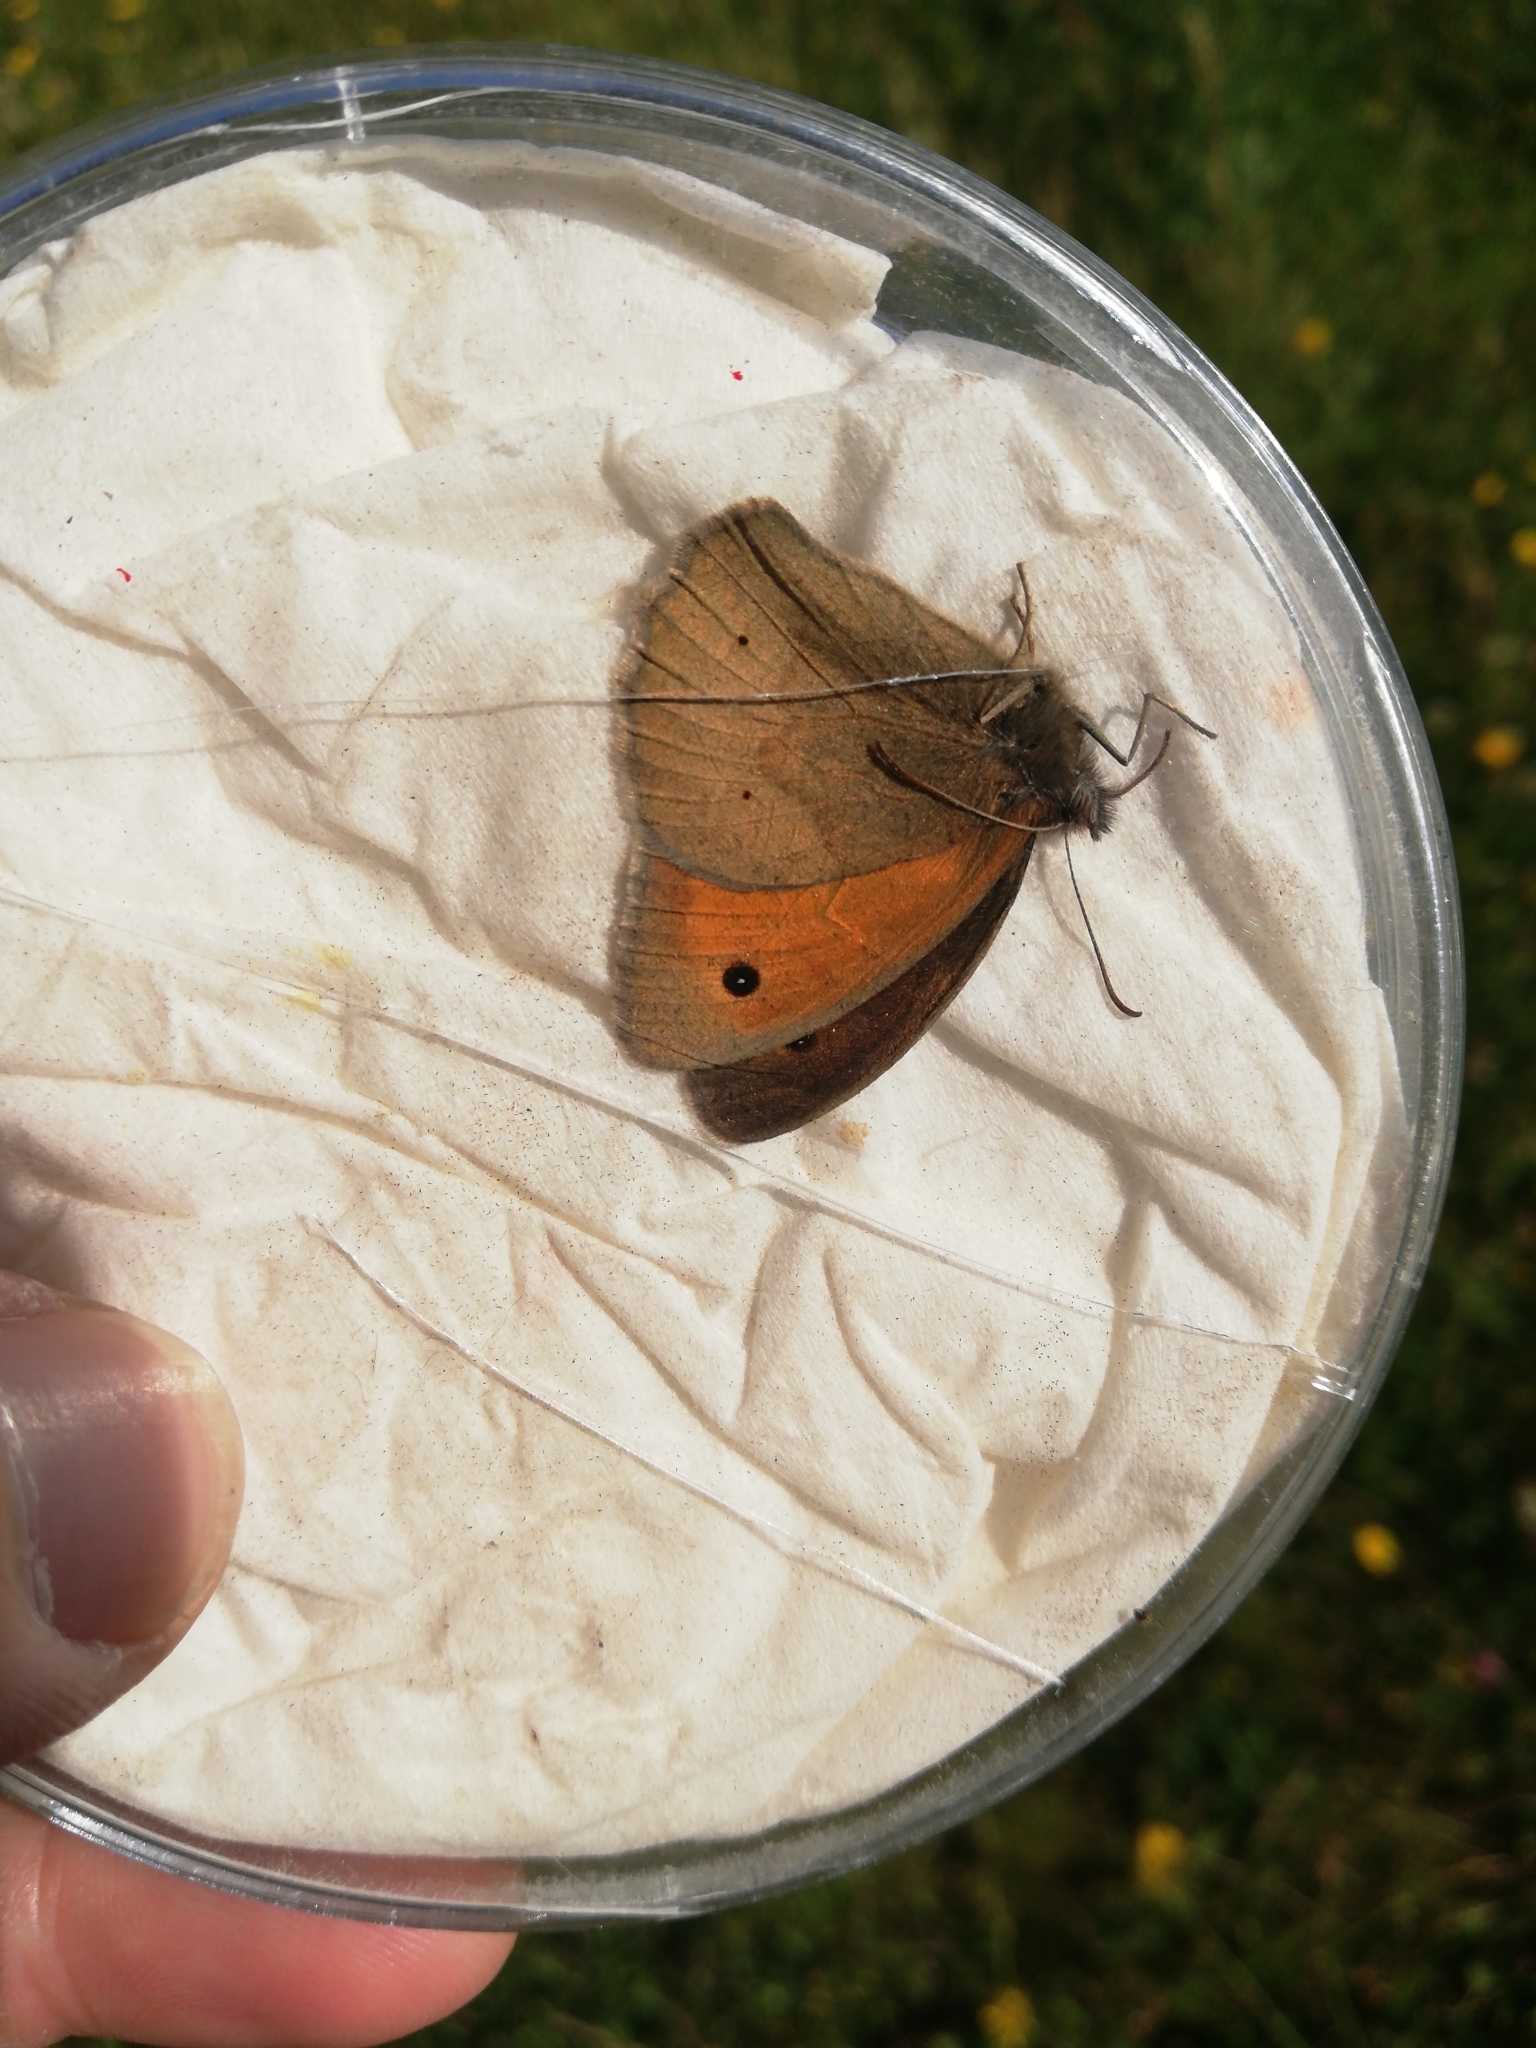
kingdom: Animalia
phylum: Arthropoda
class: Insecta
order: Lepidoptera
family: Nymphalidae
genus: Maniola
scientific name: Maniola jurtina
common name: Meadow brown
